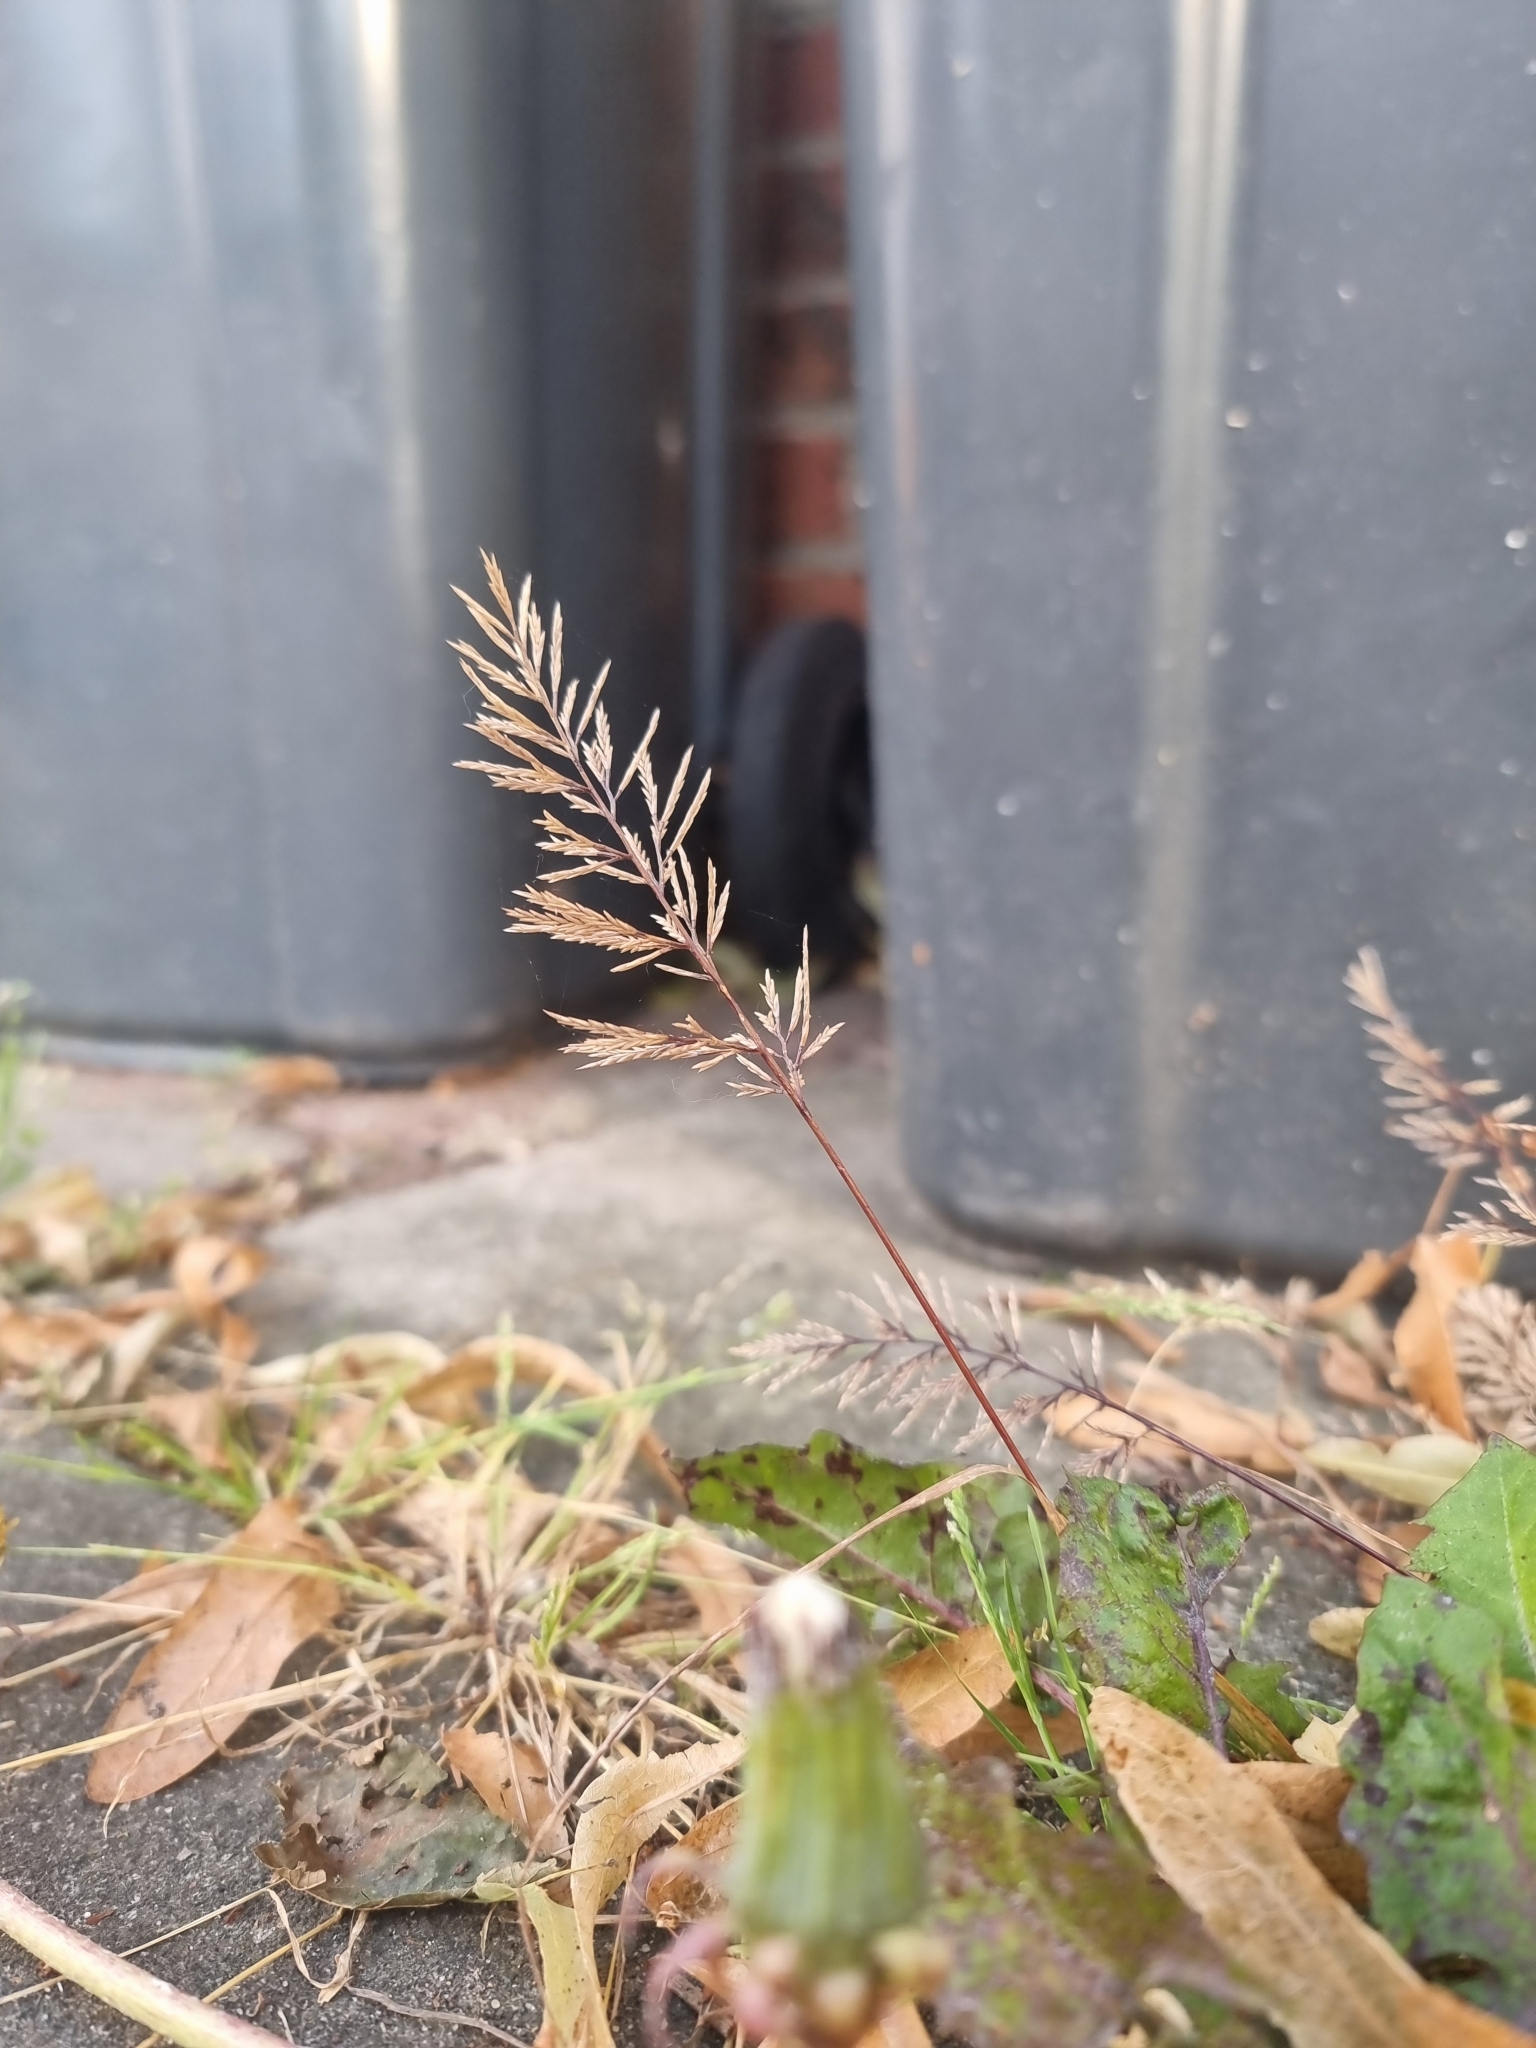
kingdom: Plantae
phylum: Tracheophyta
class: Liliopsida
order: Poales
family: Poaceae
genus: Catapodium
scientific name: Catapodium rigidum
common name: Fern-grass
